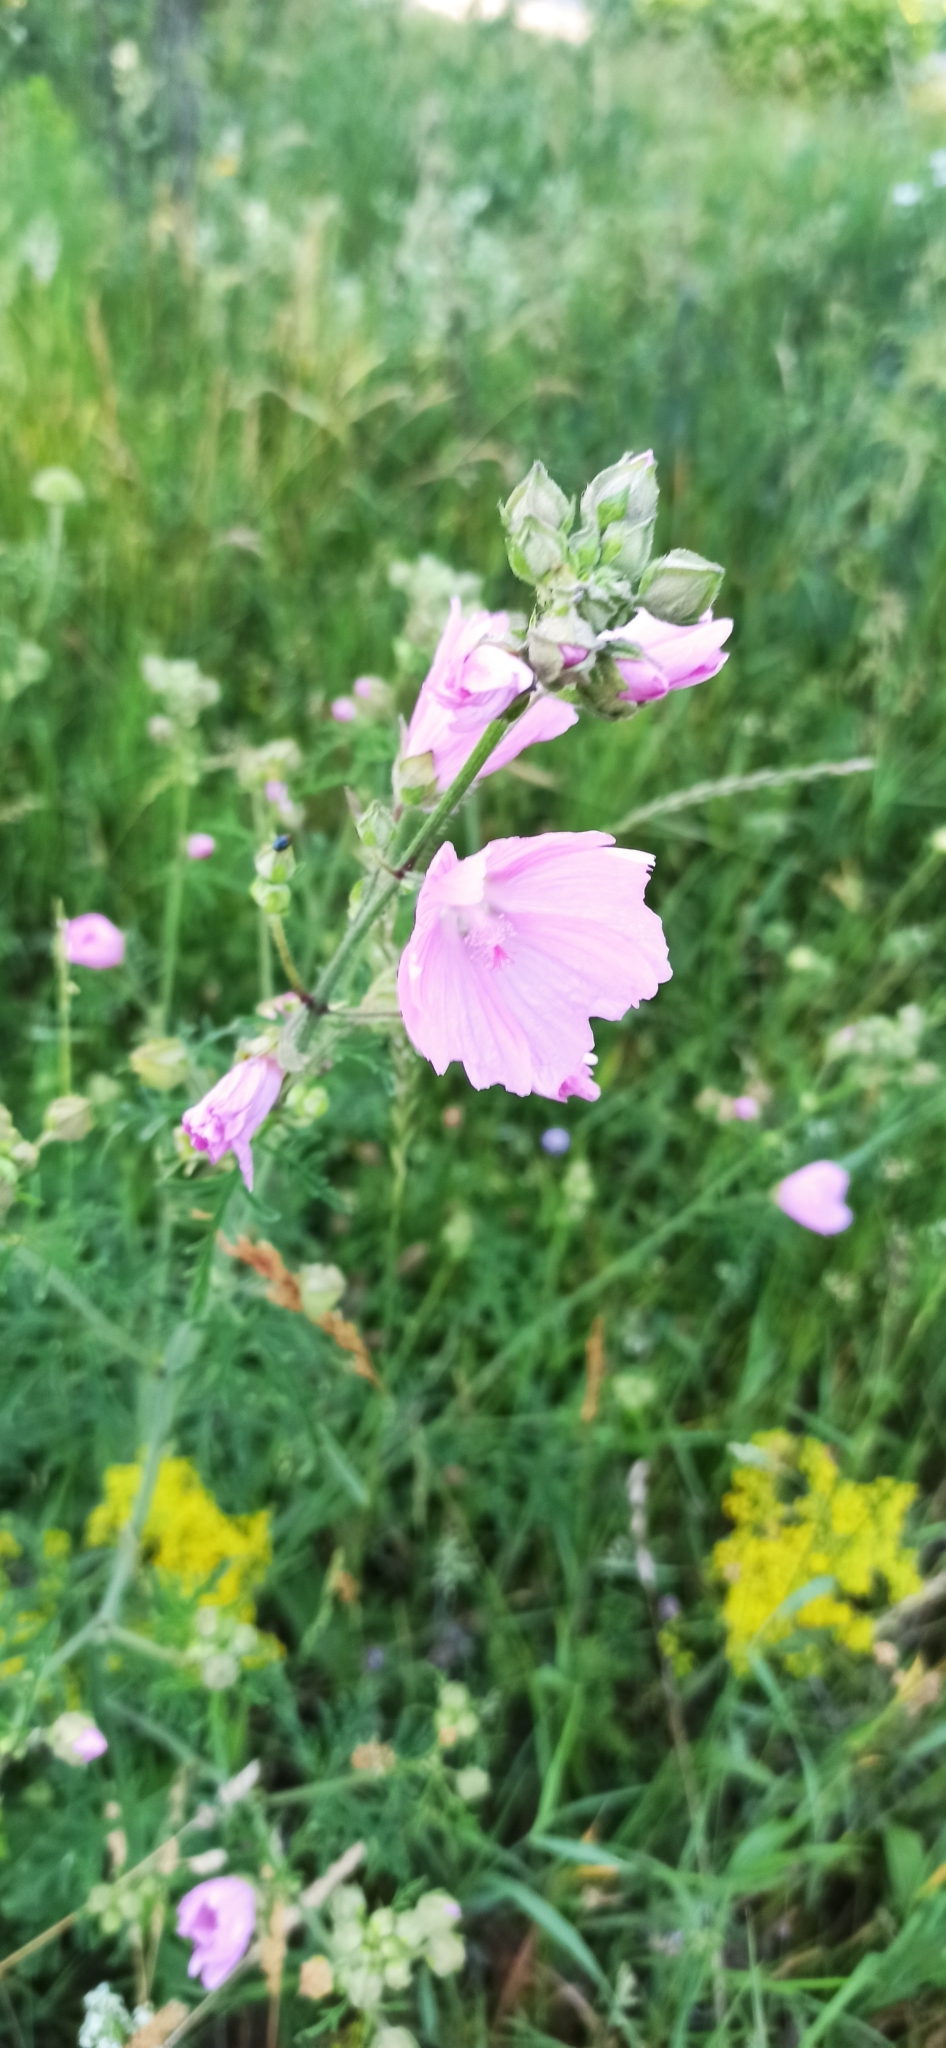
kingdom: Plantae
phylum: Tracheophyta
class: Magnoliopsida
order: Malvales
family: Malvaceae
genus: Malva
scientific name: Malva alcea
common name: Greater musk-mallow
